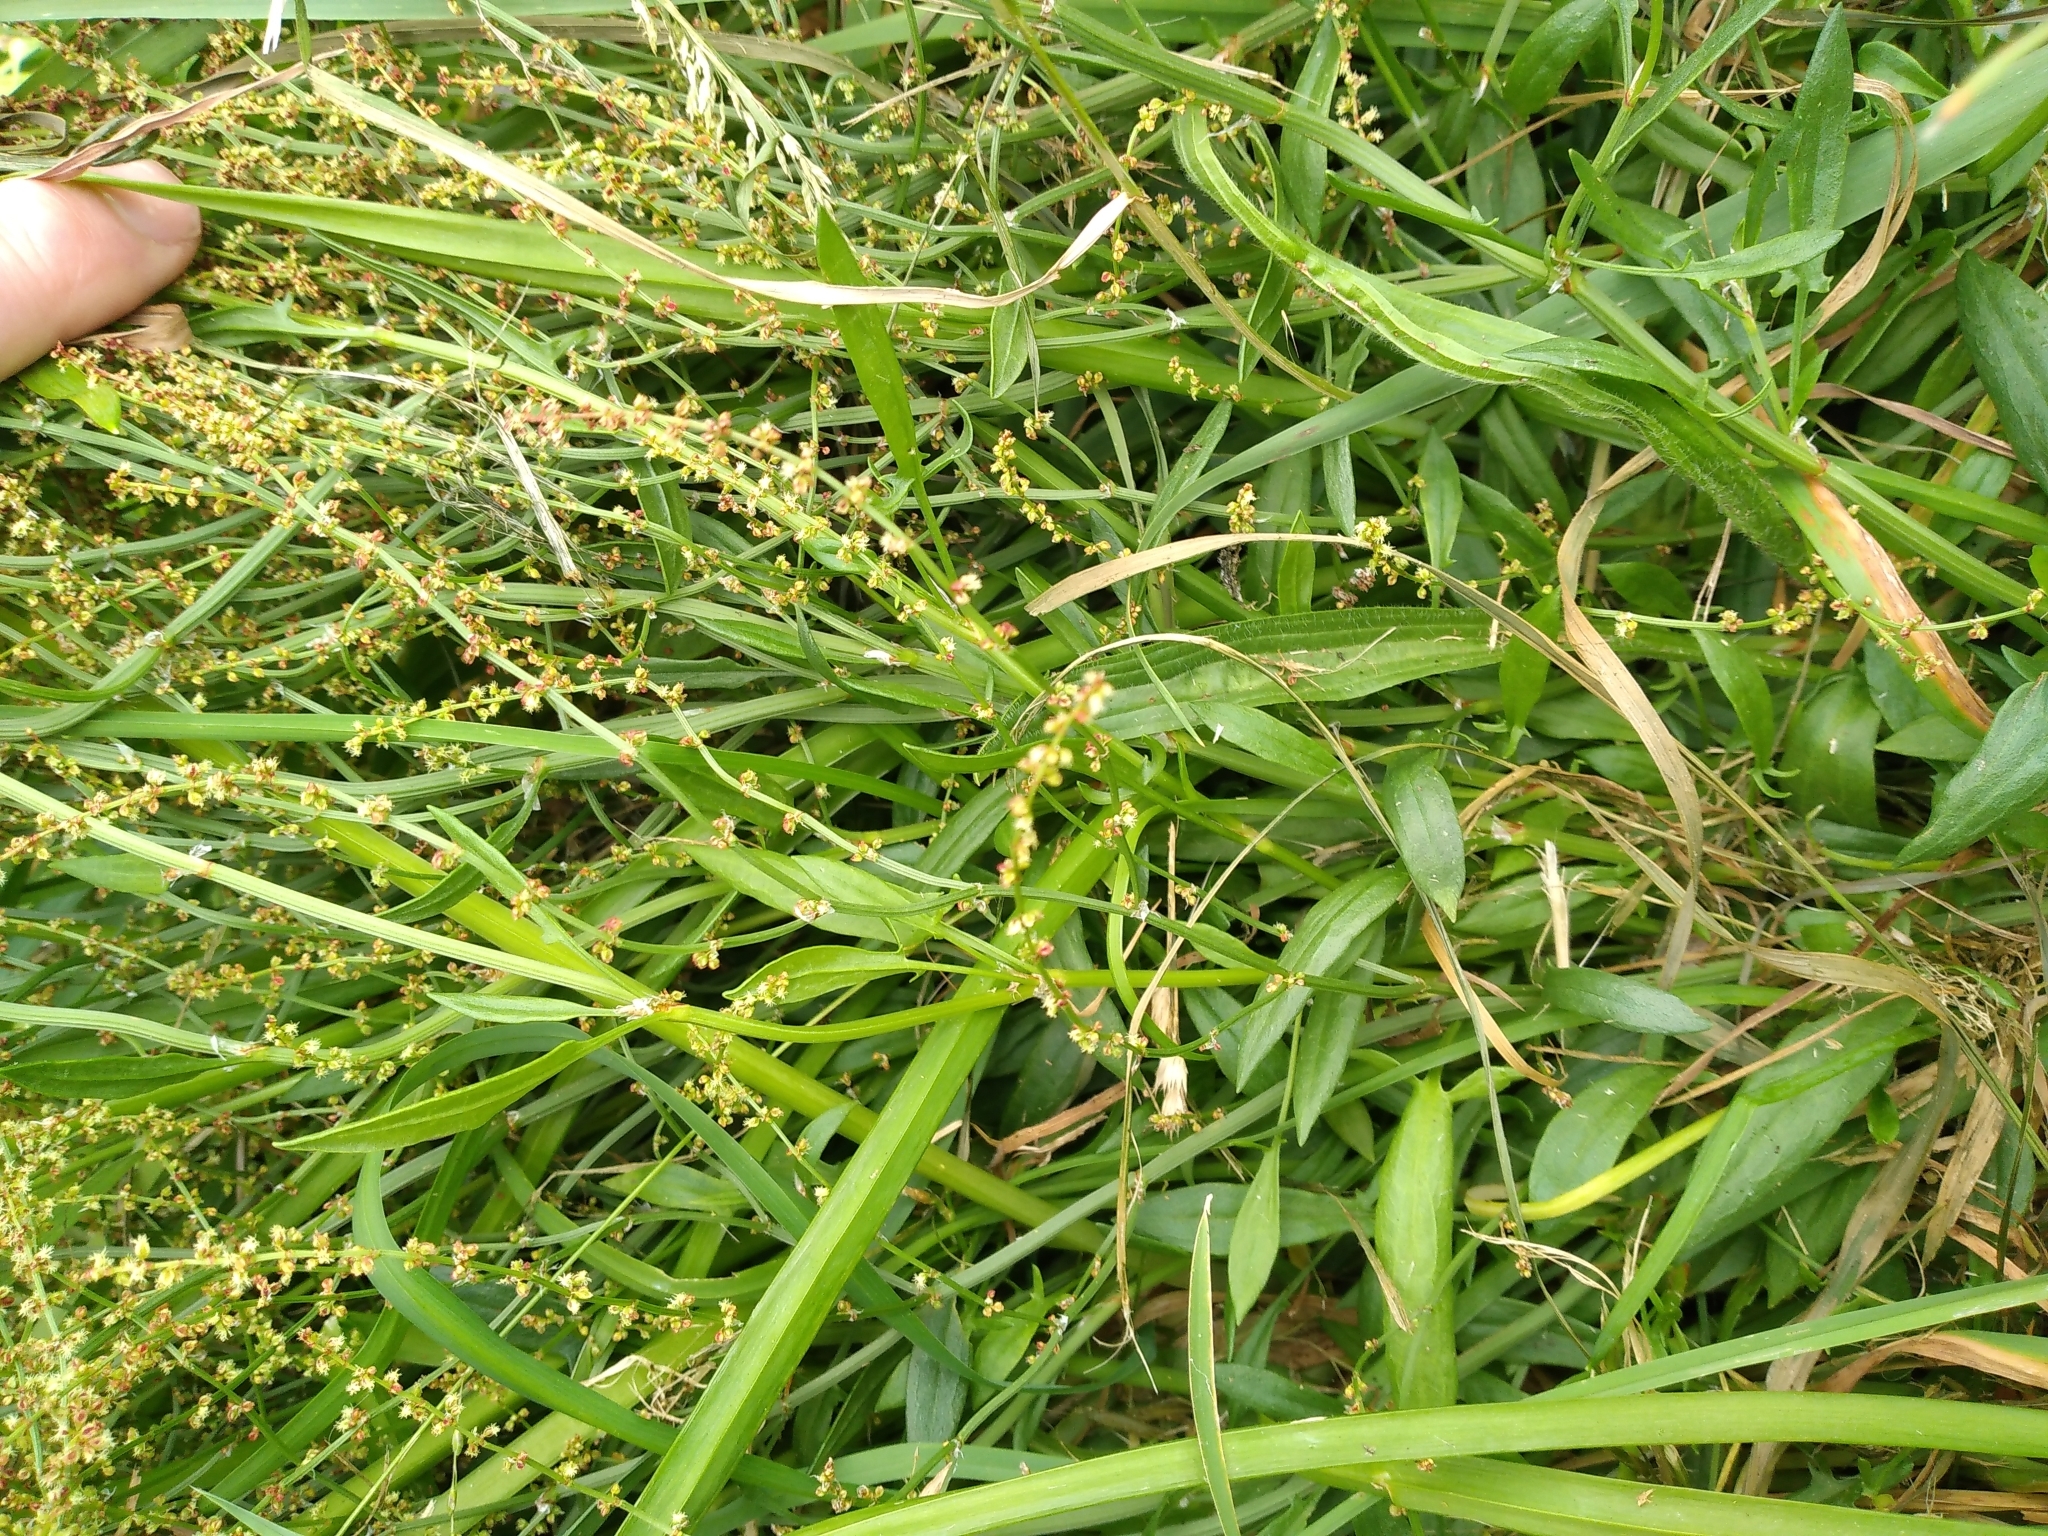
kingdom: Plantae
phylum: Tracheophyta
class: Magnoliopsida
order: Caryophyllales
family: Polygonaceae
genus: Rumex
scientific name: Rumex acetosella
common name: Common sheep sorrel
